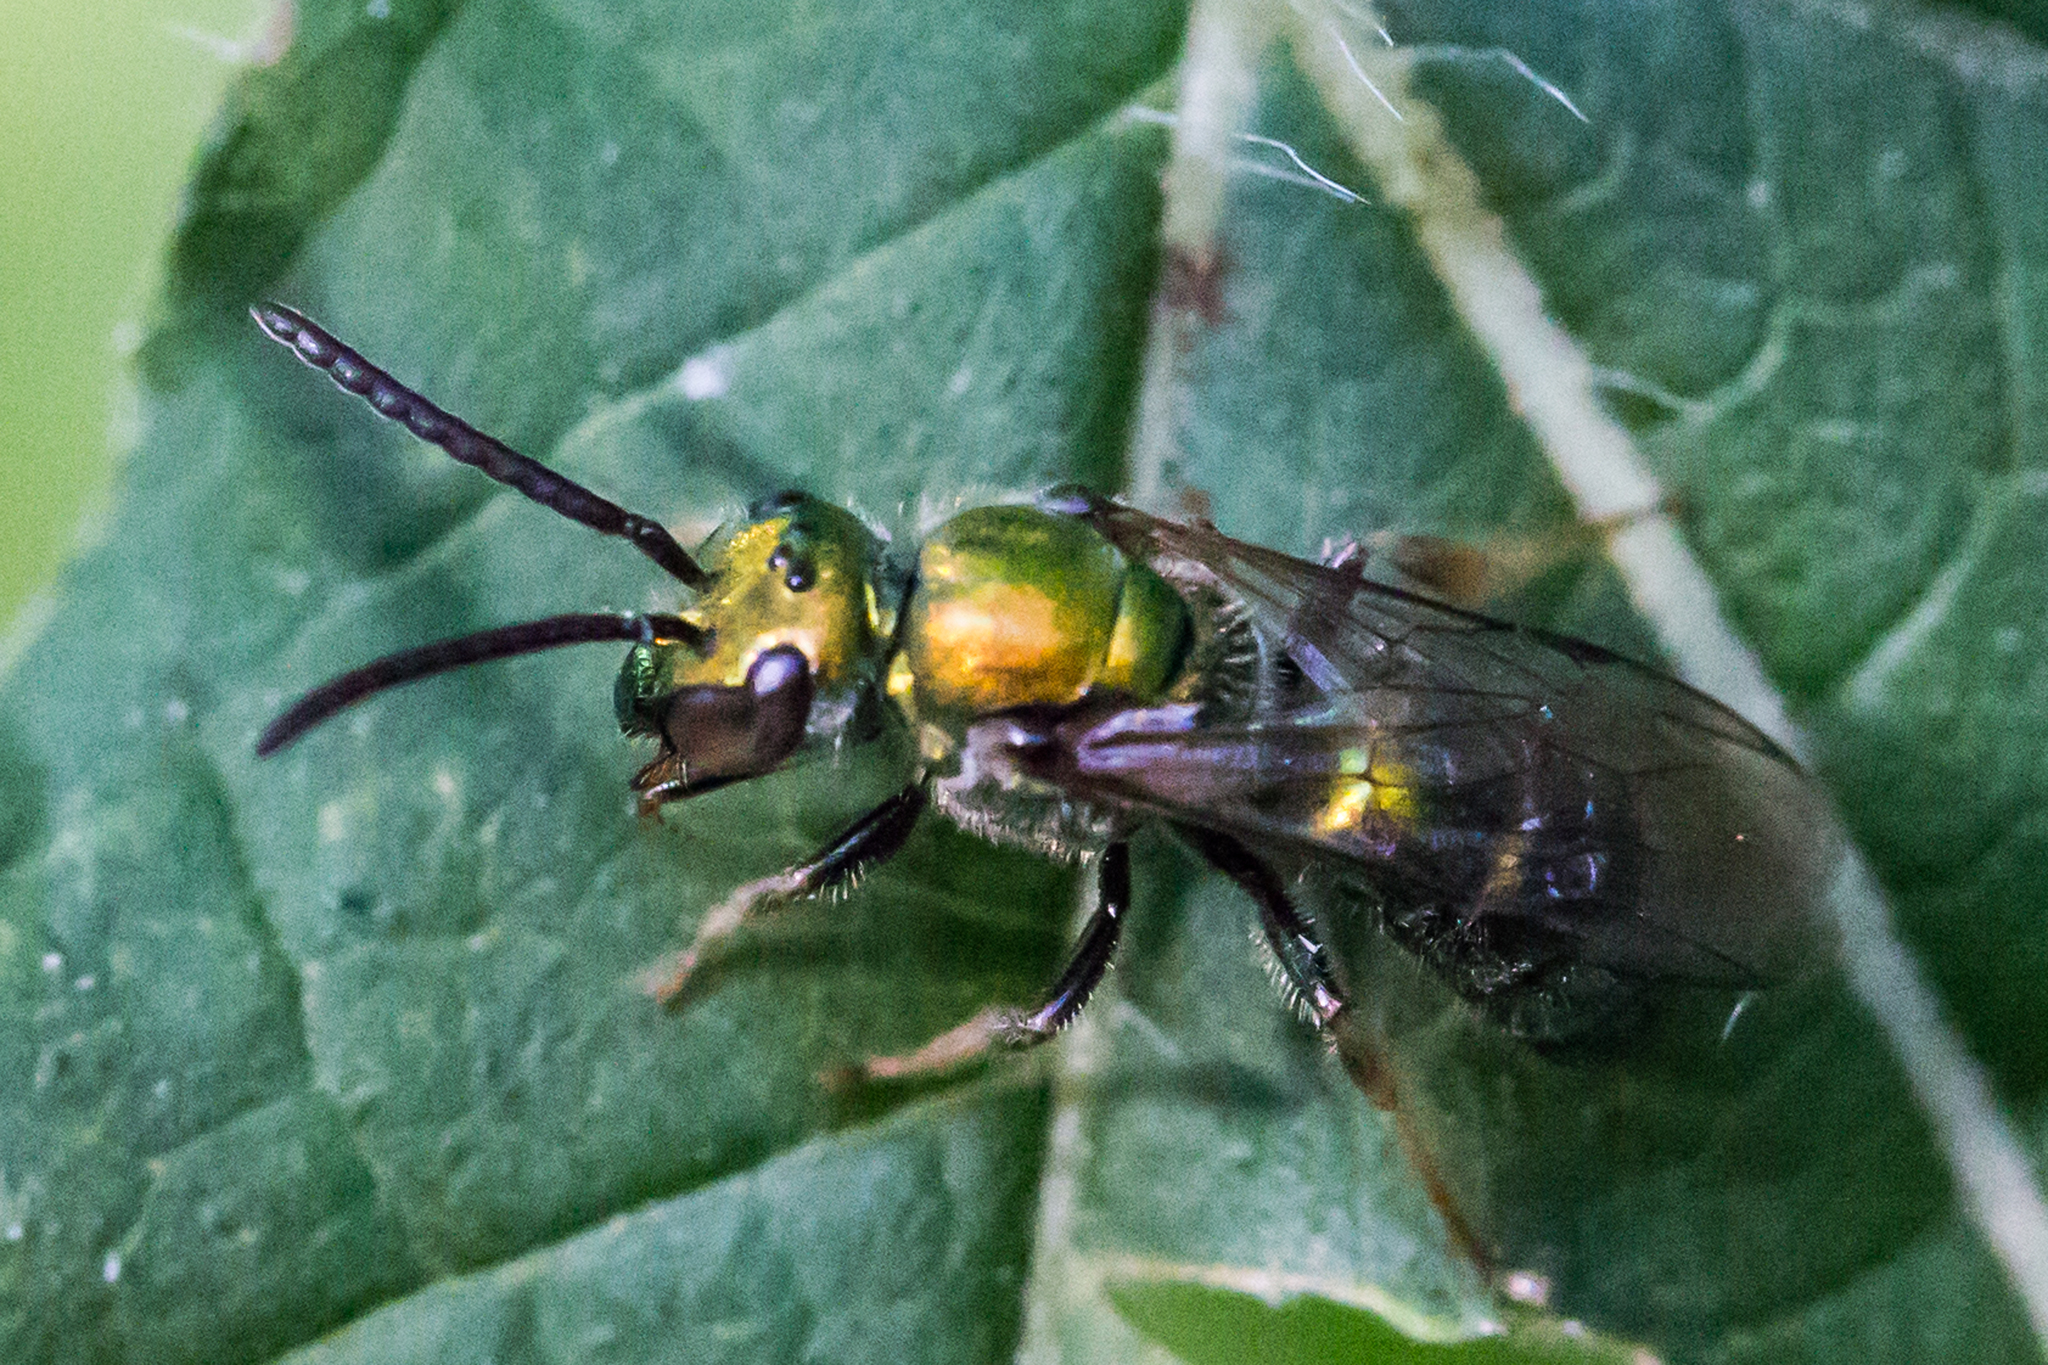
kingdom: Animalia
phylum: Arthropoda
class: Insecta
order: Hymenoptera
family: Halictidae
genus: Augochlora
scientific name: Augochlora pura
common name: Pure green sweat bee
